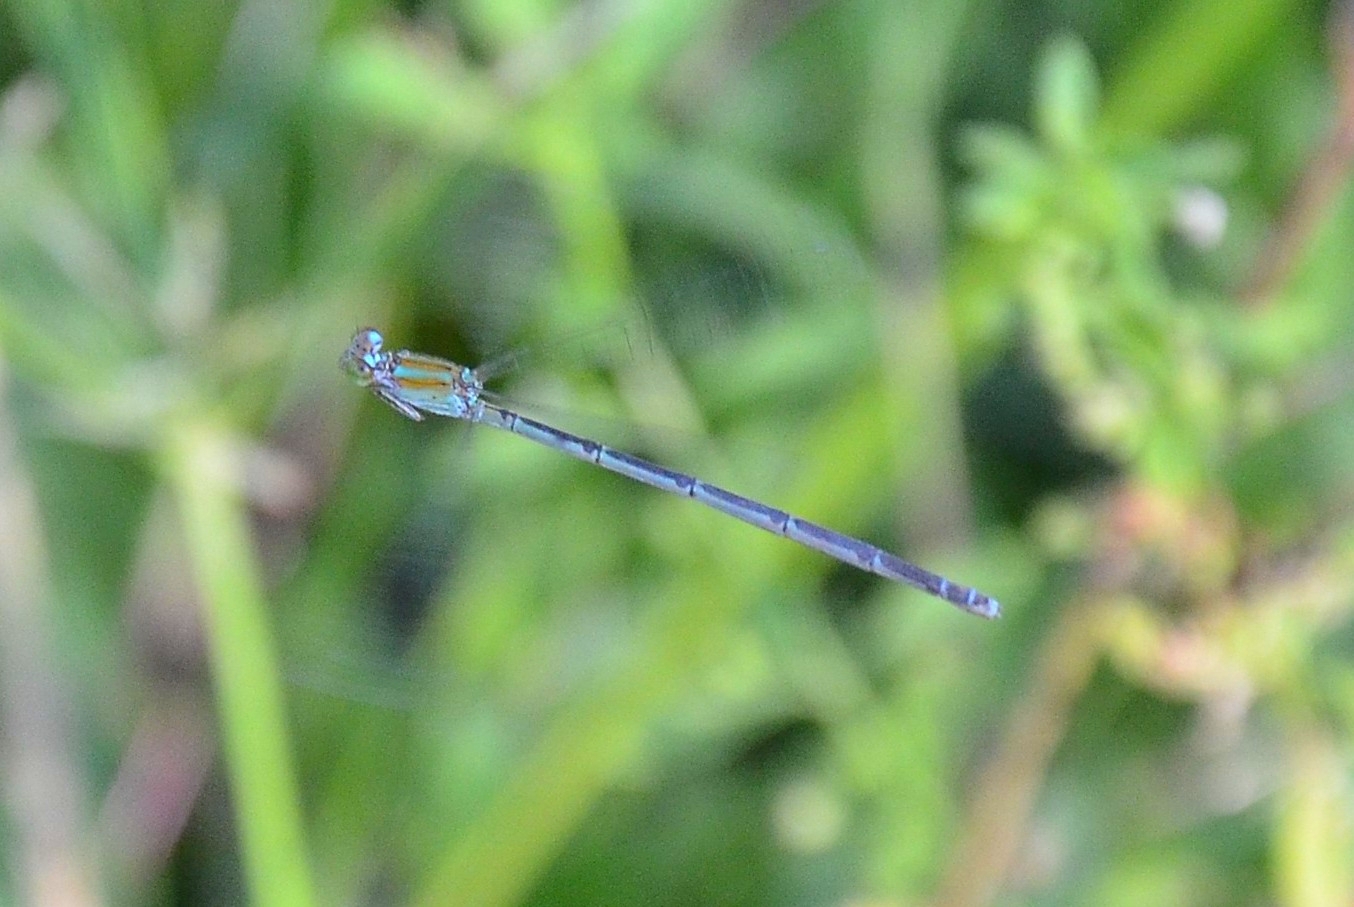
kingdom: Animalia
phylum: Arthropoda
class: Insecta
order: Odonata
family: Coenagrionidae
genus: Pseudagrion
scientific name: Pseudagrion microcephalum
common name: Blue riverdamsel
